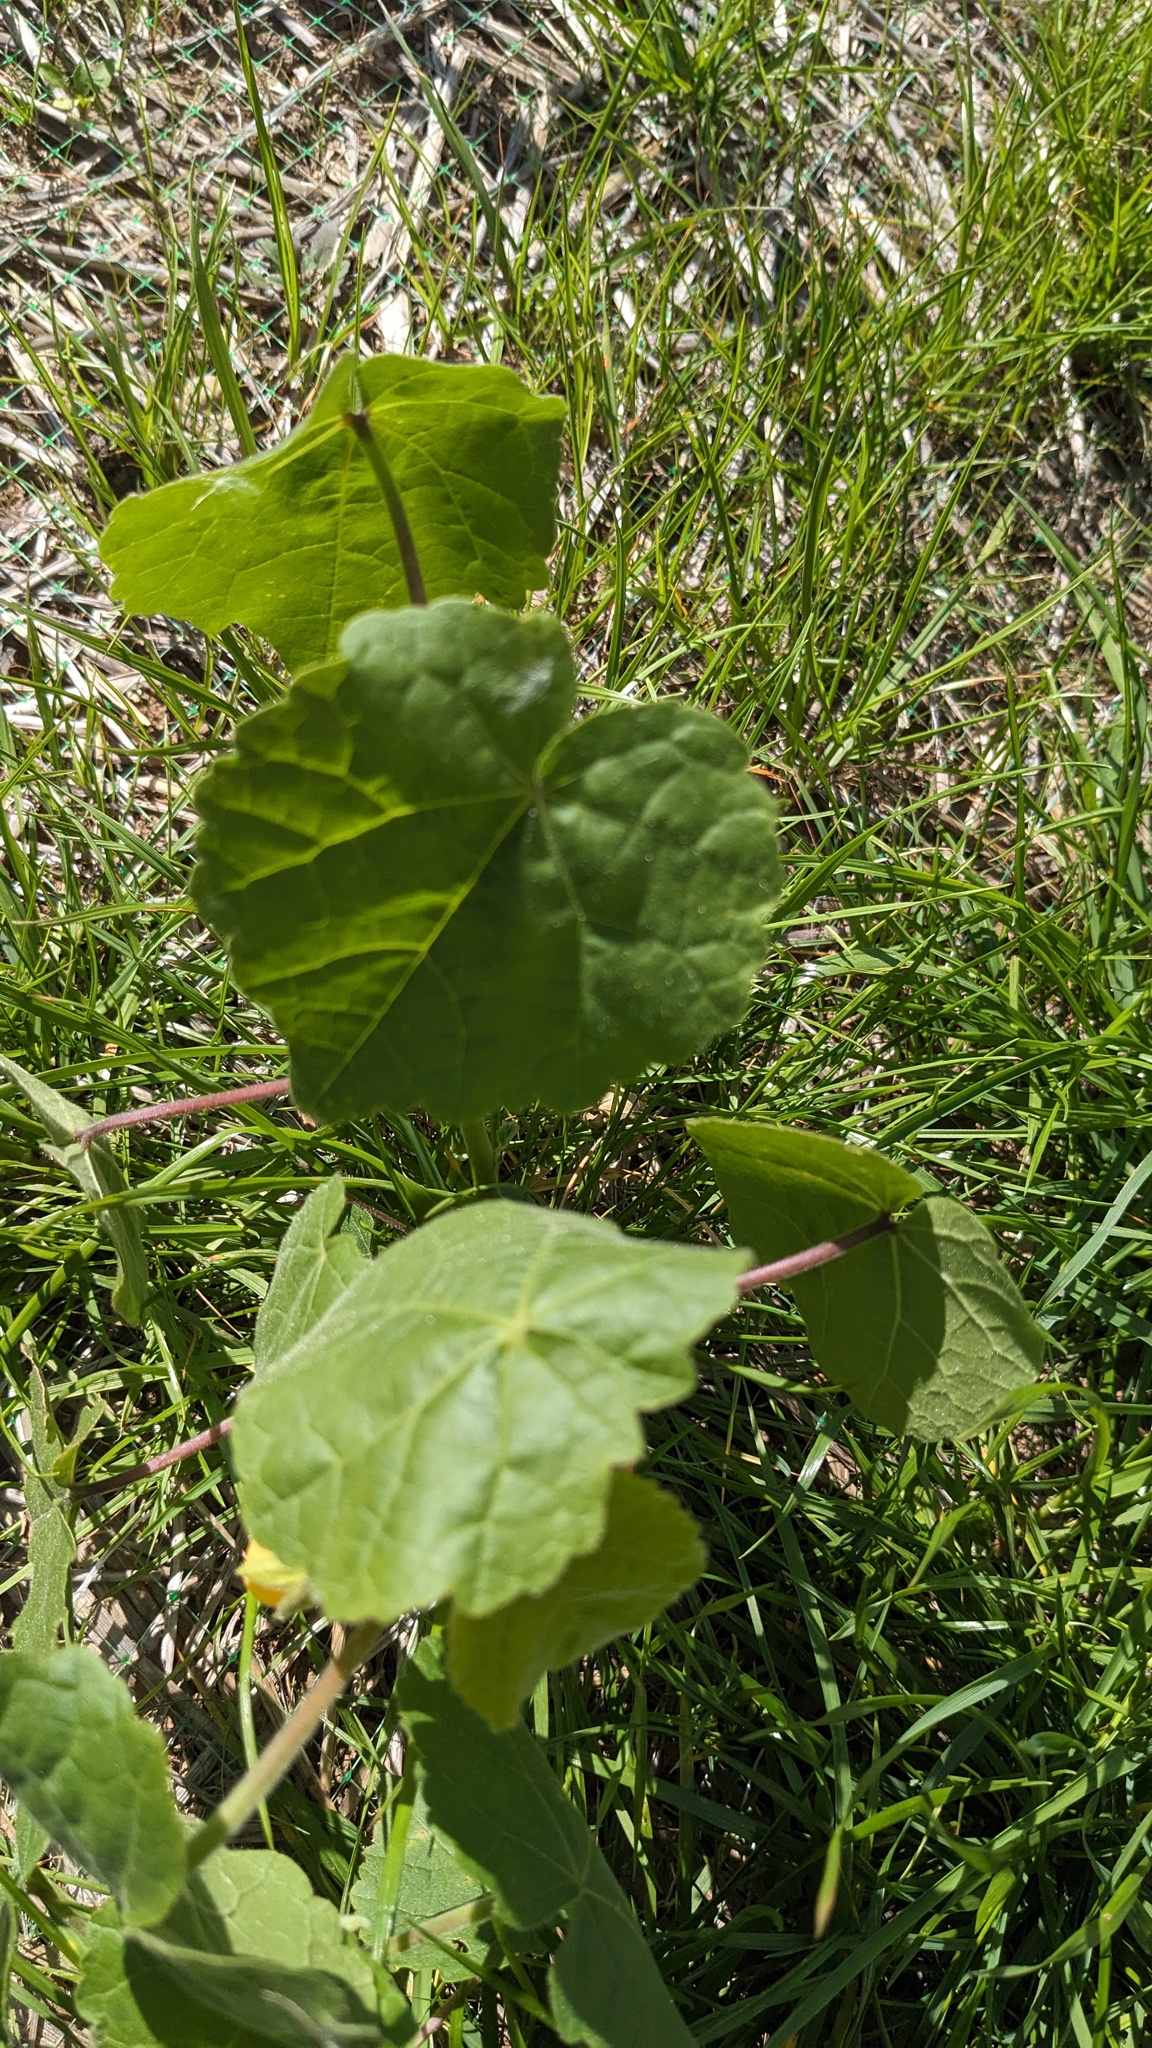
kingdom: Plantae
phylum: Tracheophyta
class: Magnoliopsida
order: Malvales
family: Malvaceae
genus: Abutilon
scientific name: Abutilon theophrasti
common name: Velvetleaf
